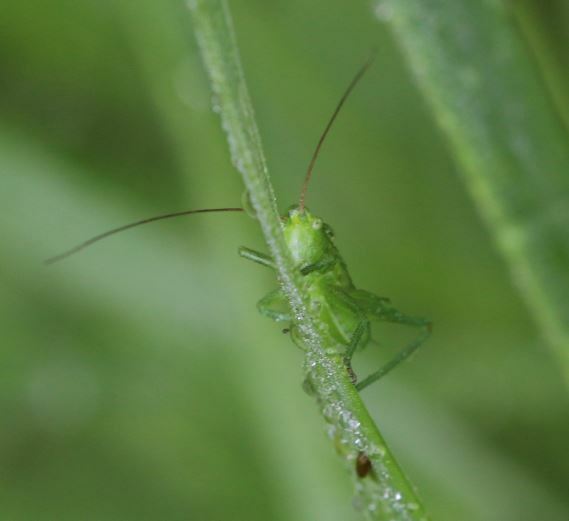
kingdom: Animalia
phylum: Arthropoda
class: Insecta
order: Orthoptera
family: Tettigoniidae
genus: Tettigonia
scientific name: Tettigonia viridissima
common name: Great green bush-cricket
